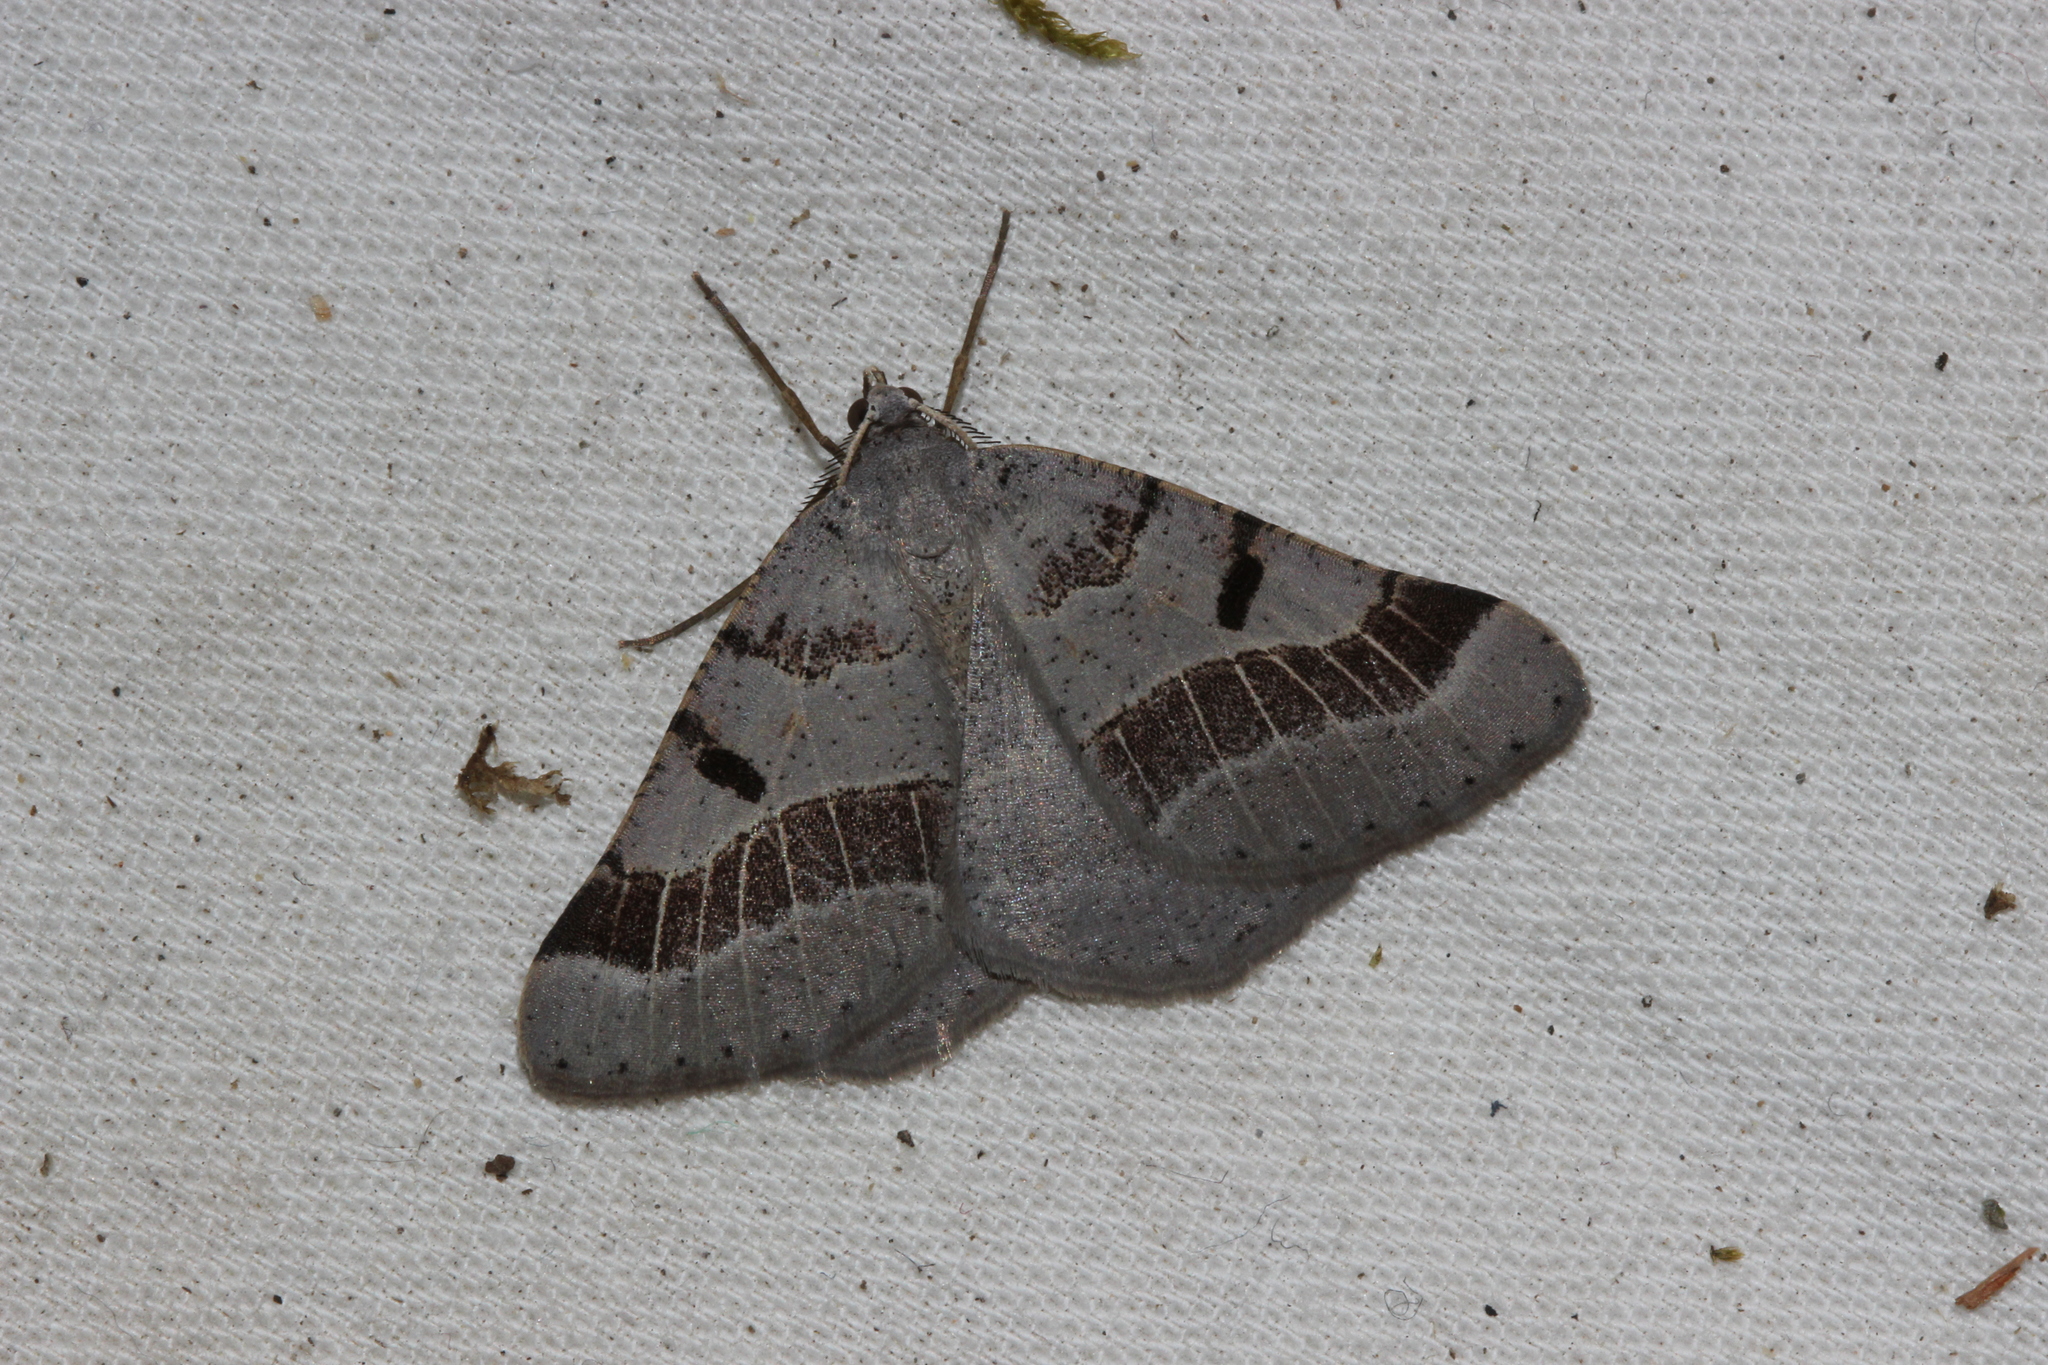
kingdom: Animalia
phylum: Arthropoda
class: Insecta
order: Lepidoptera
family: Geometridae
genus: Itame
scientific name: Itame vincularia
